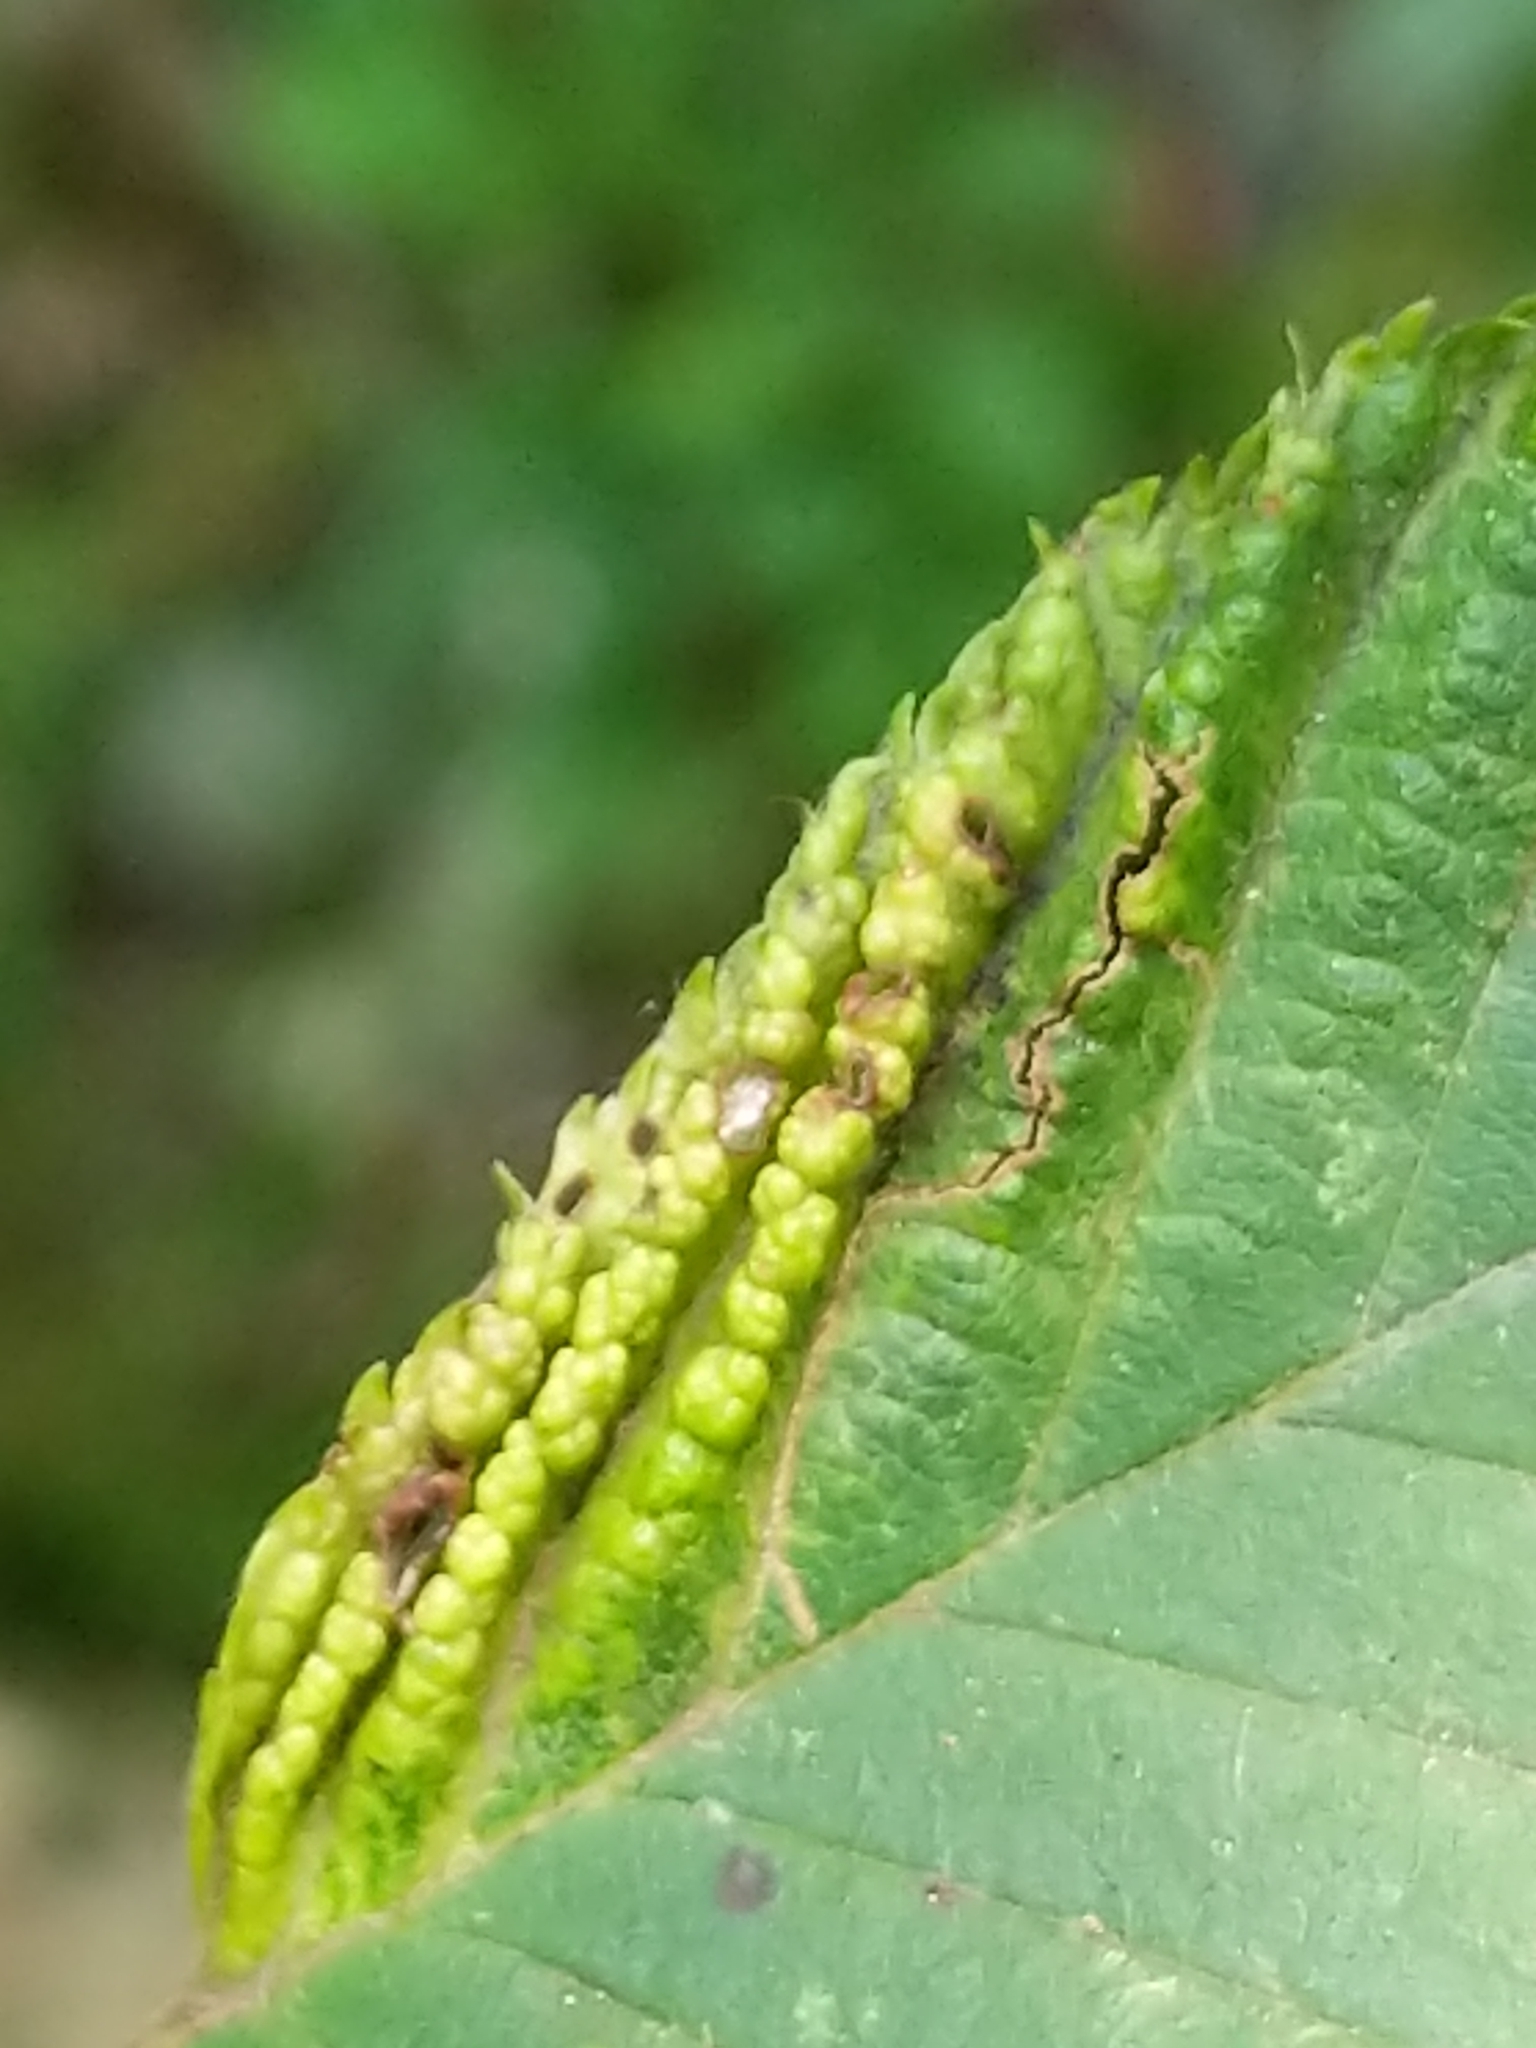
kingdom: Animalia
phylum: Arthropoda
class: Insecta
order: Hemiptera
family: Aphididae
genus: Hamamelistes
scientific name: Hamamelistes spinosus
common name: Witch hazel gall aphid
